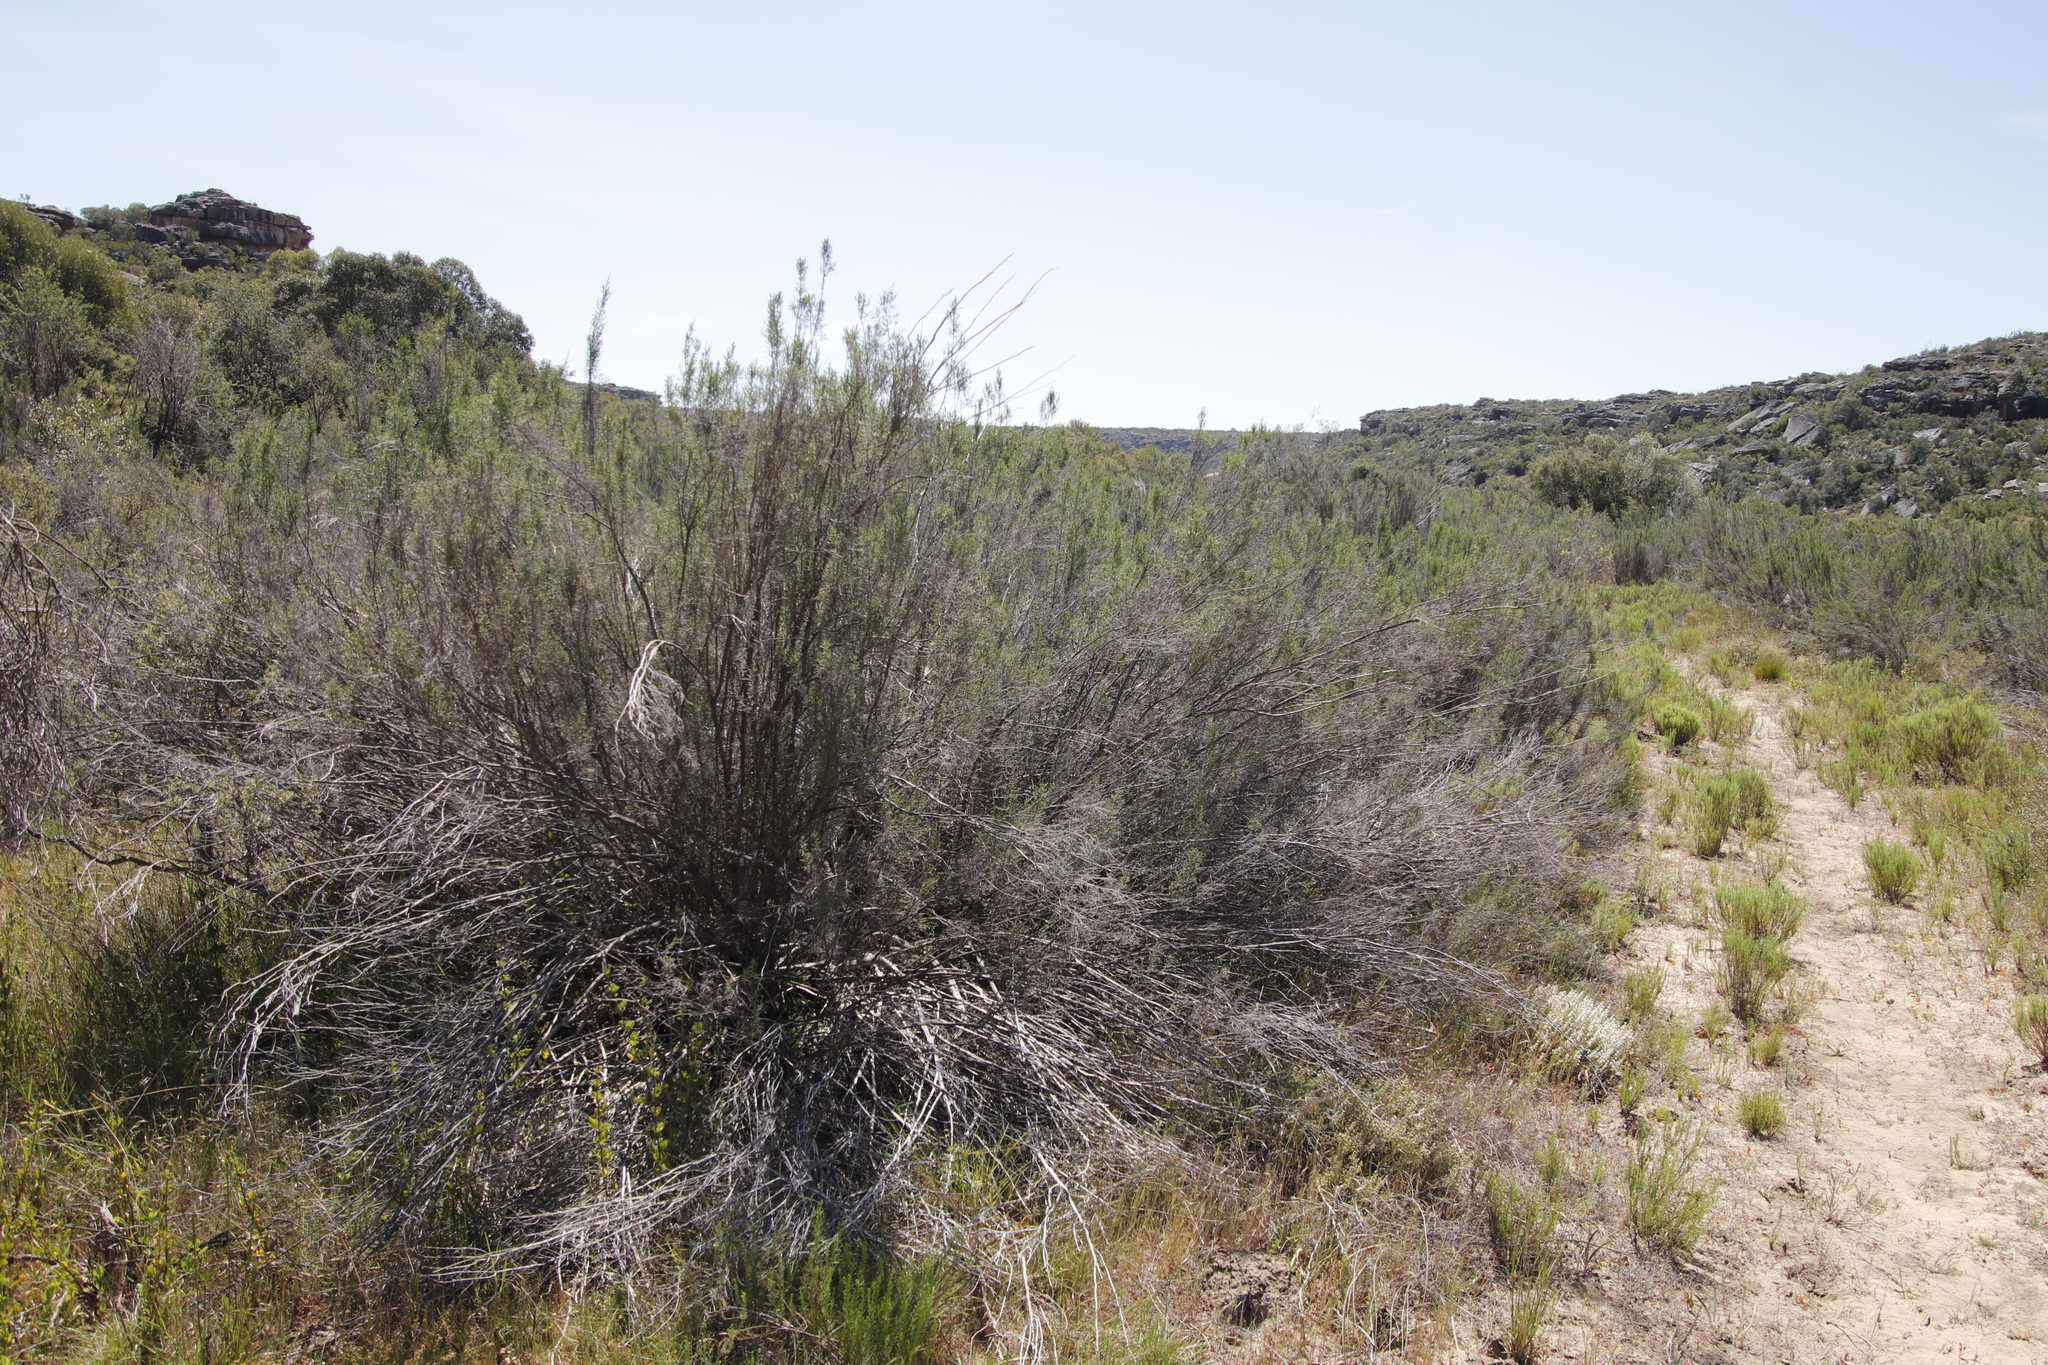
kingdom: Plantae
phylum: Tracheophyta
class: Magnoliopsida
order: Asterales
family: Asteraceae
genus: Dicerothamnus
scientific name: Dicerothamnus rhinocerotis
